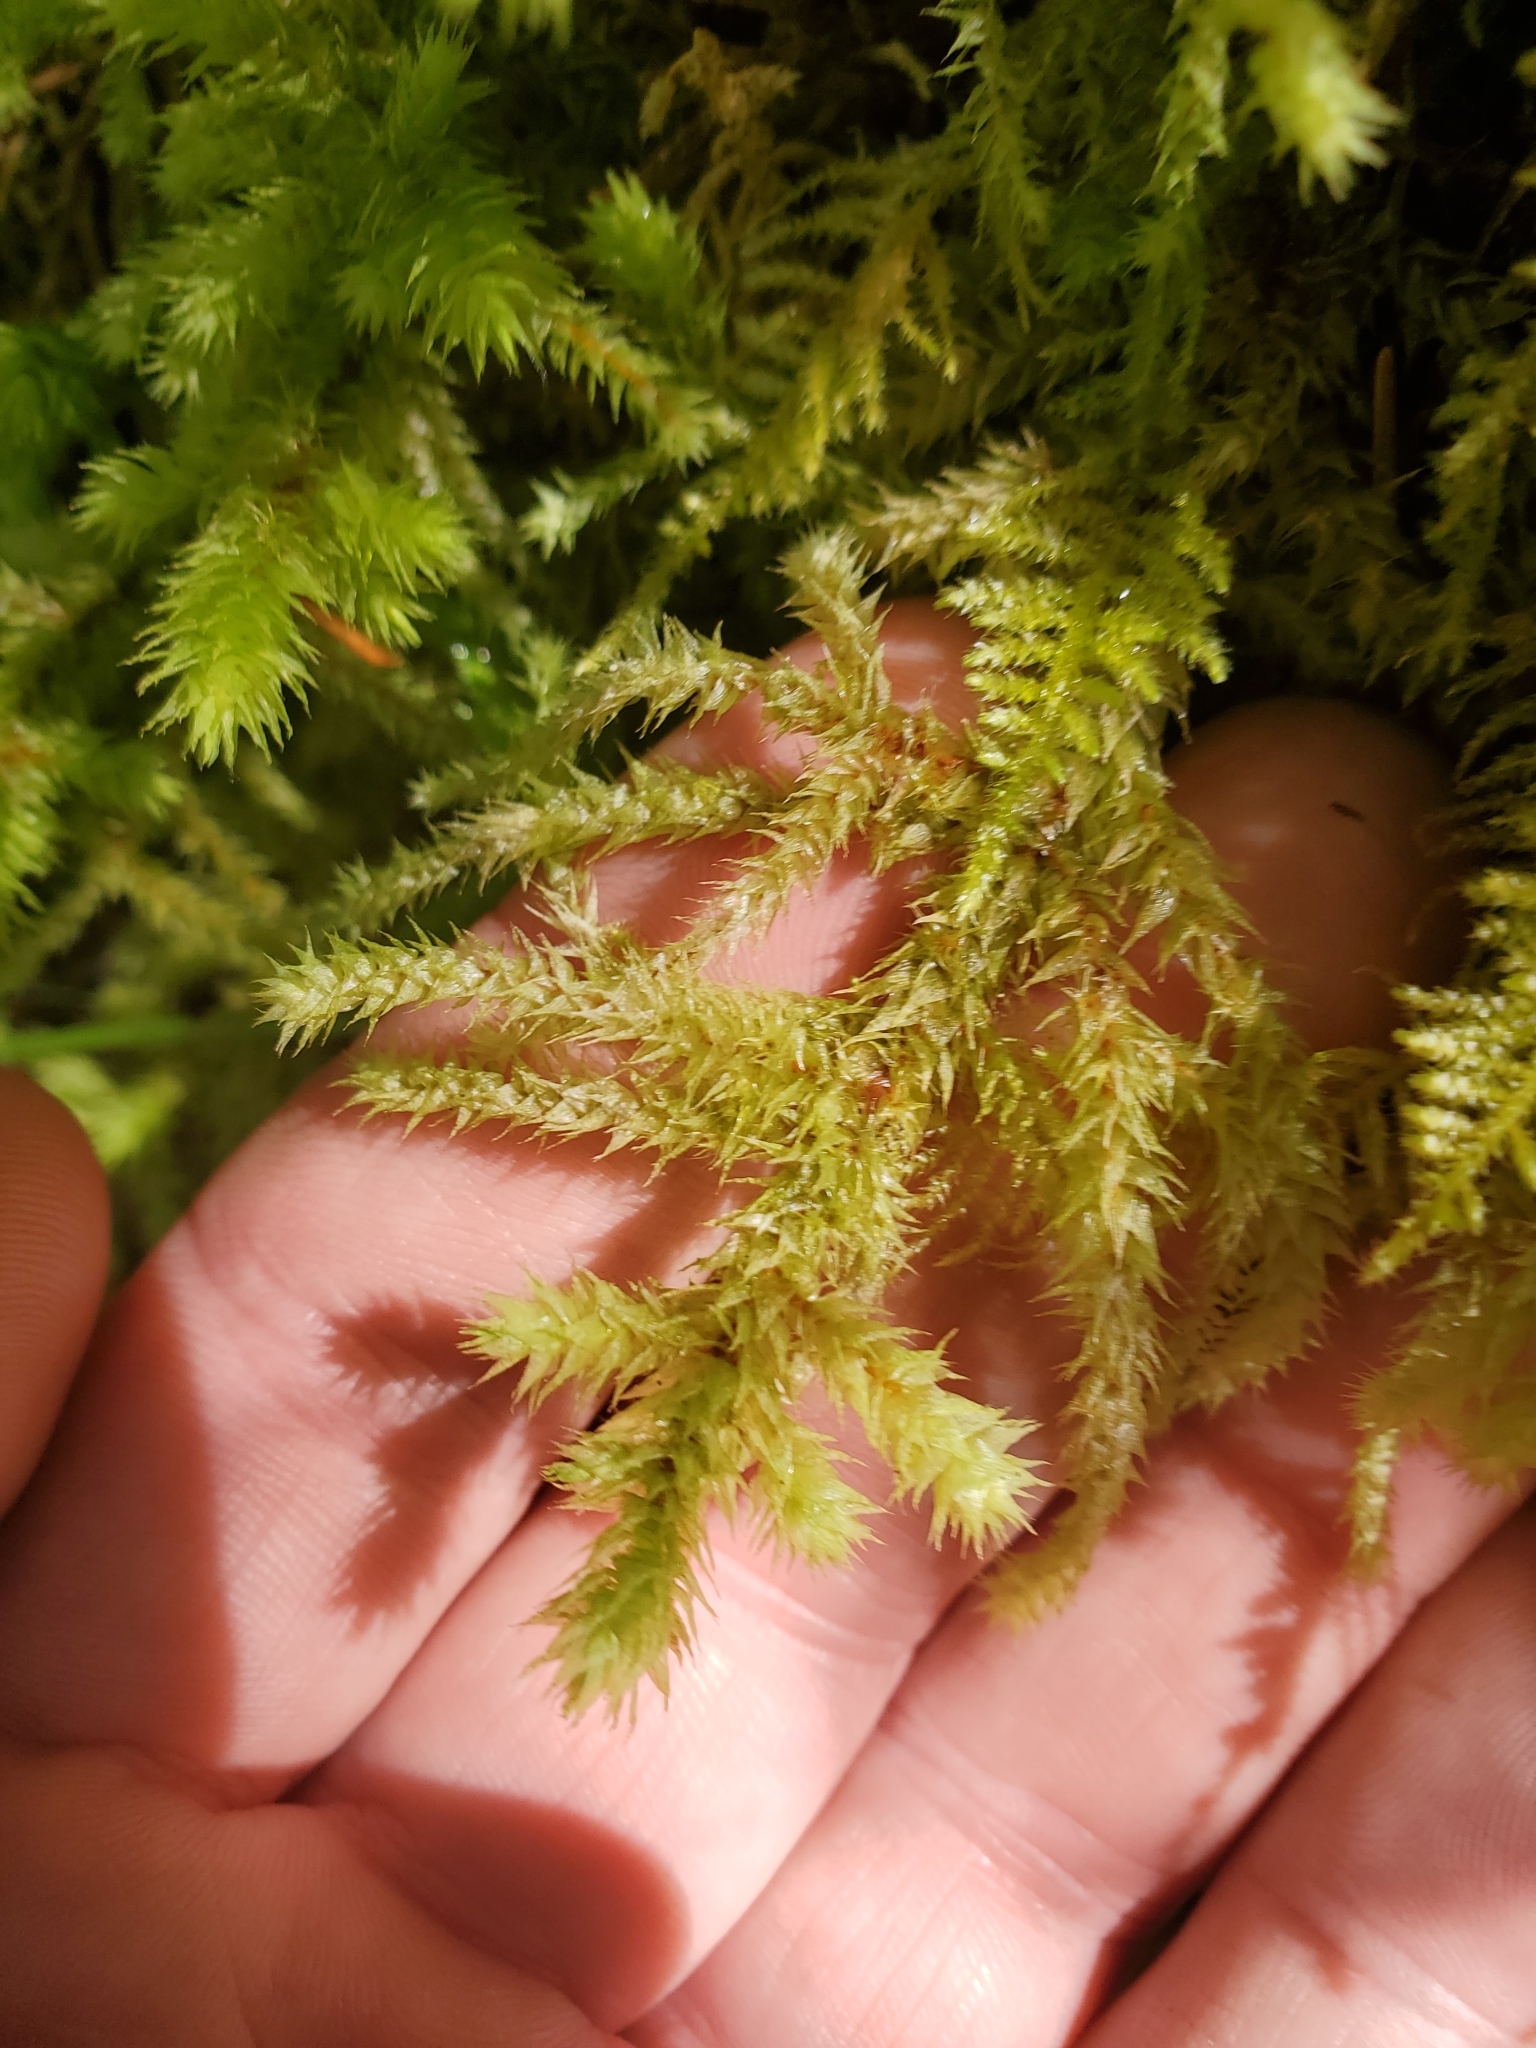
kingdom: Plantae
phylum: Bryophyta
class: Bryopsida
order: Hypnales
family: Hylocomiaceae
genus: Hylocomiadelphus
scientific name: Hylocomiadelphus triquetrus
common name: Rough goose neck moss
